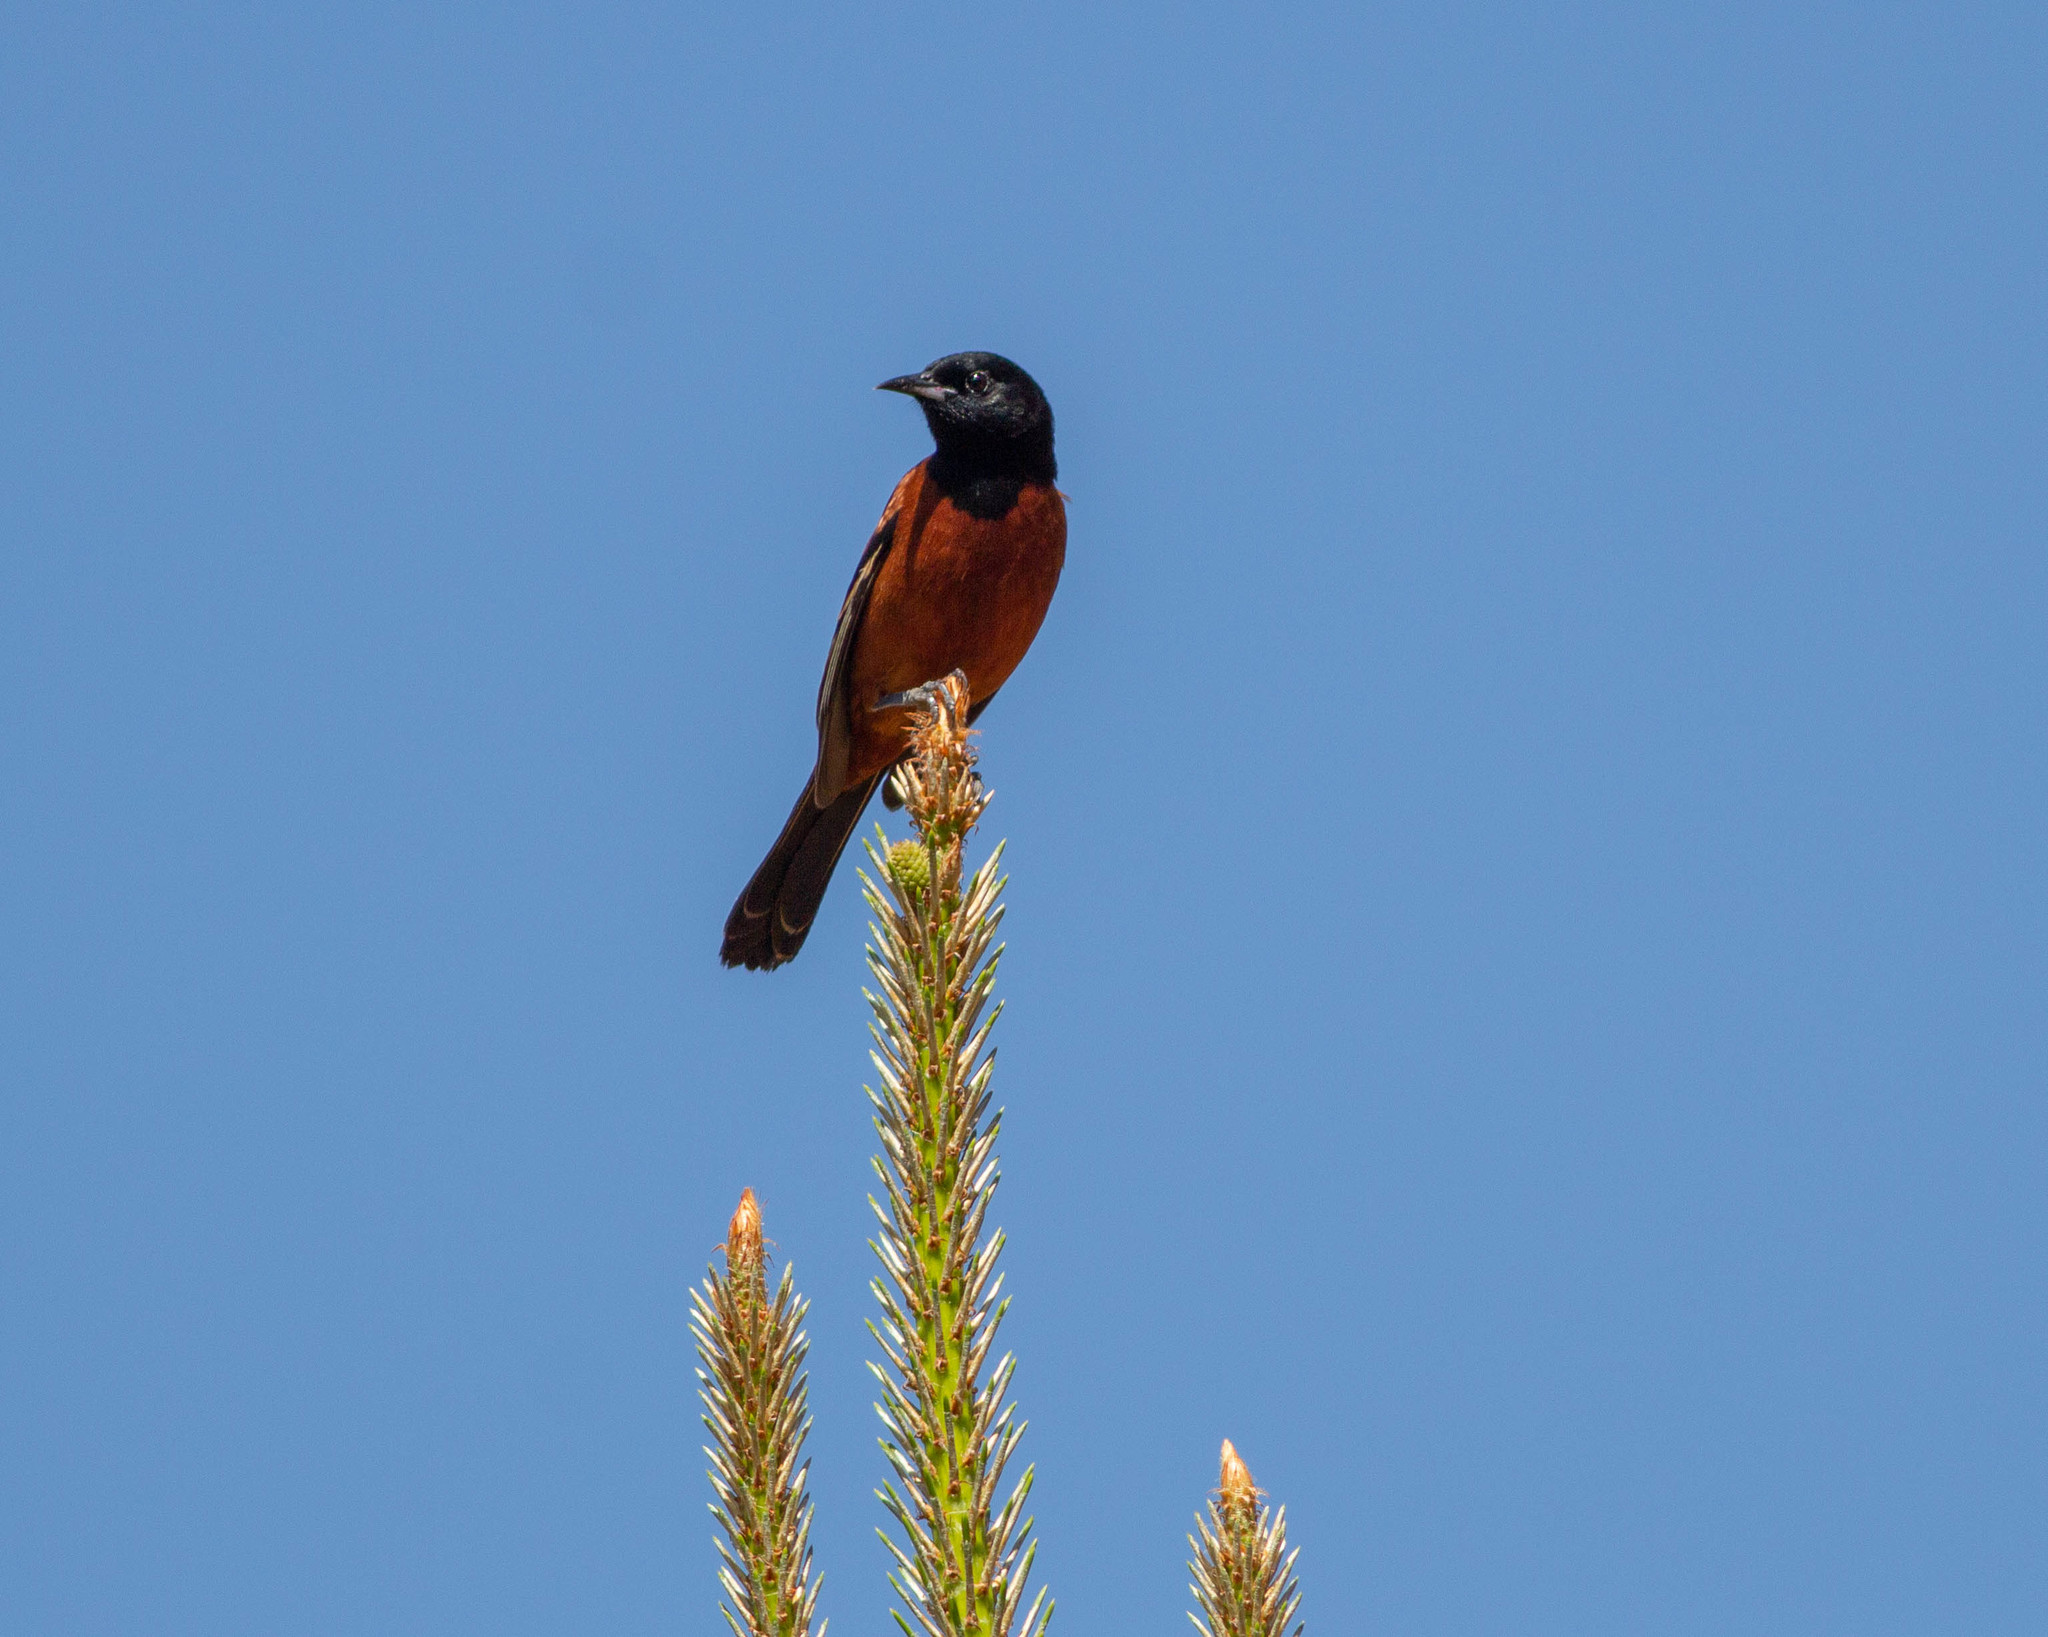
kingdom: Animalia
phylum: Chordata
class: Aves
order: Passeriformes
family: Icteridae
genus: Icterus
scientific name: Icterus spurius
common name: Orchard oriole
